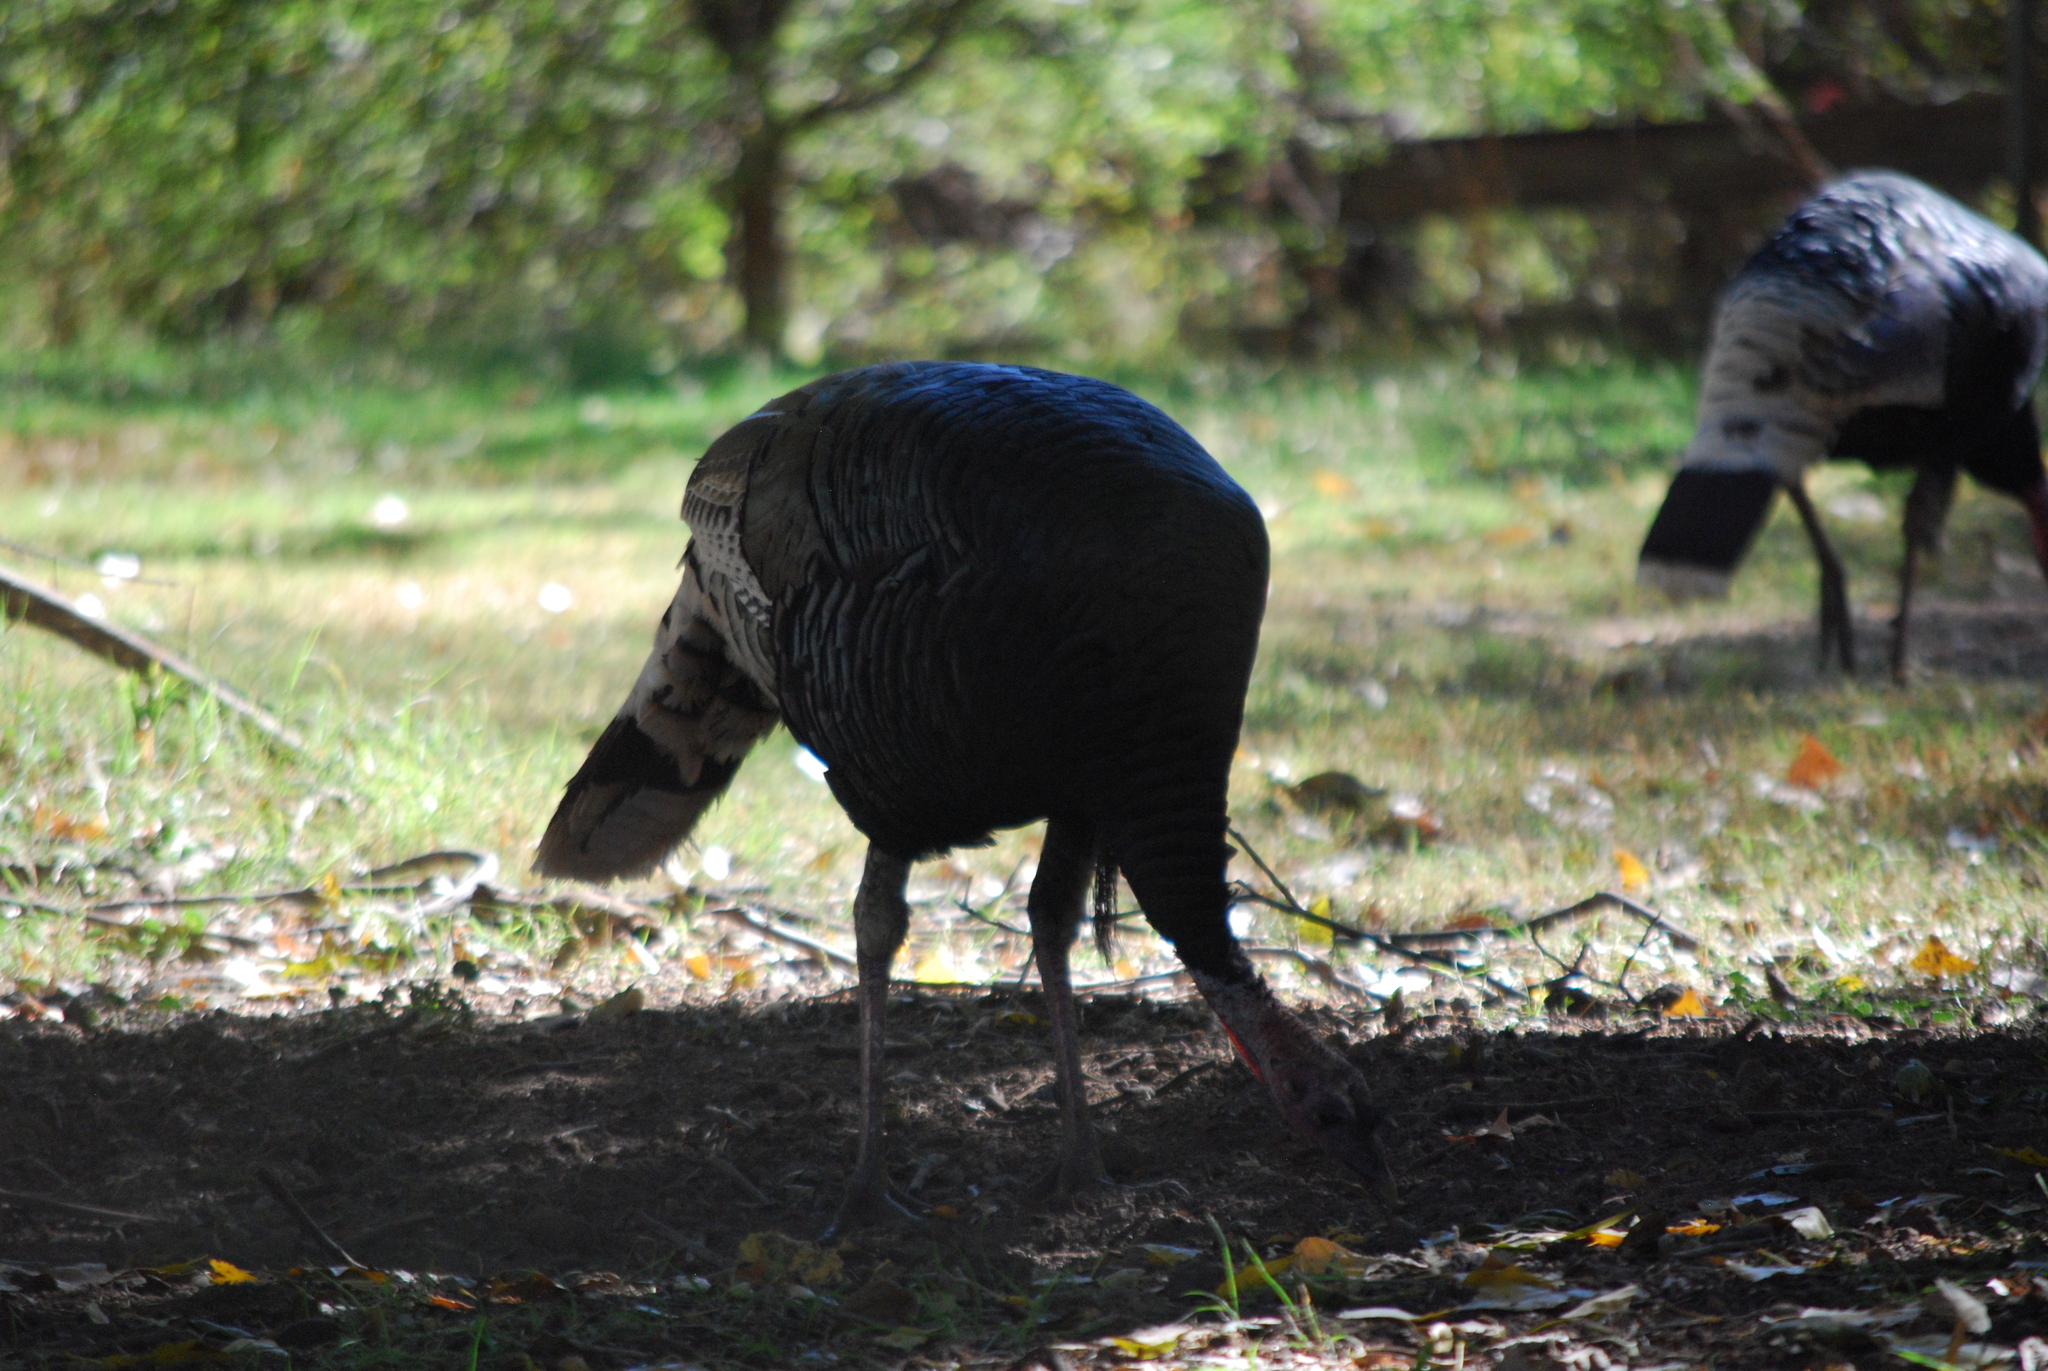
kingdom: Animalia
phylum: Chordata
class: Aves
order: Galliformes
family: Phasianidae
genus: Meleagris
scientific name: Meleagris gallopavo
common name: Wild turkey
